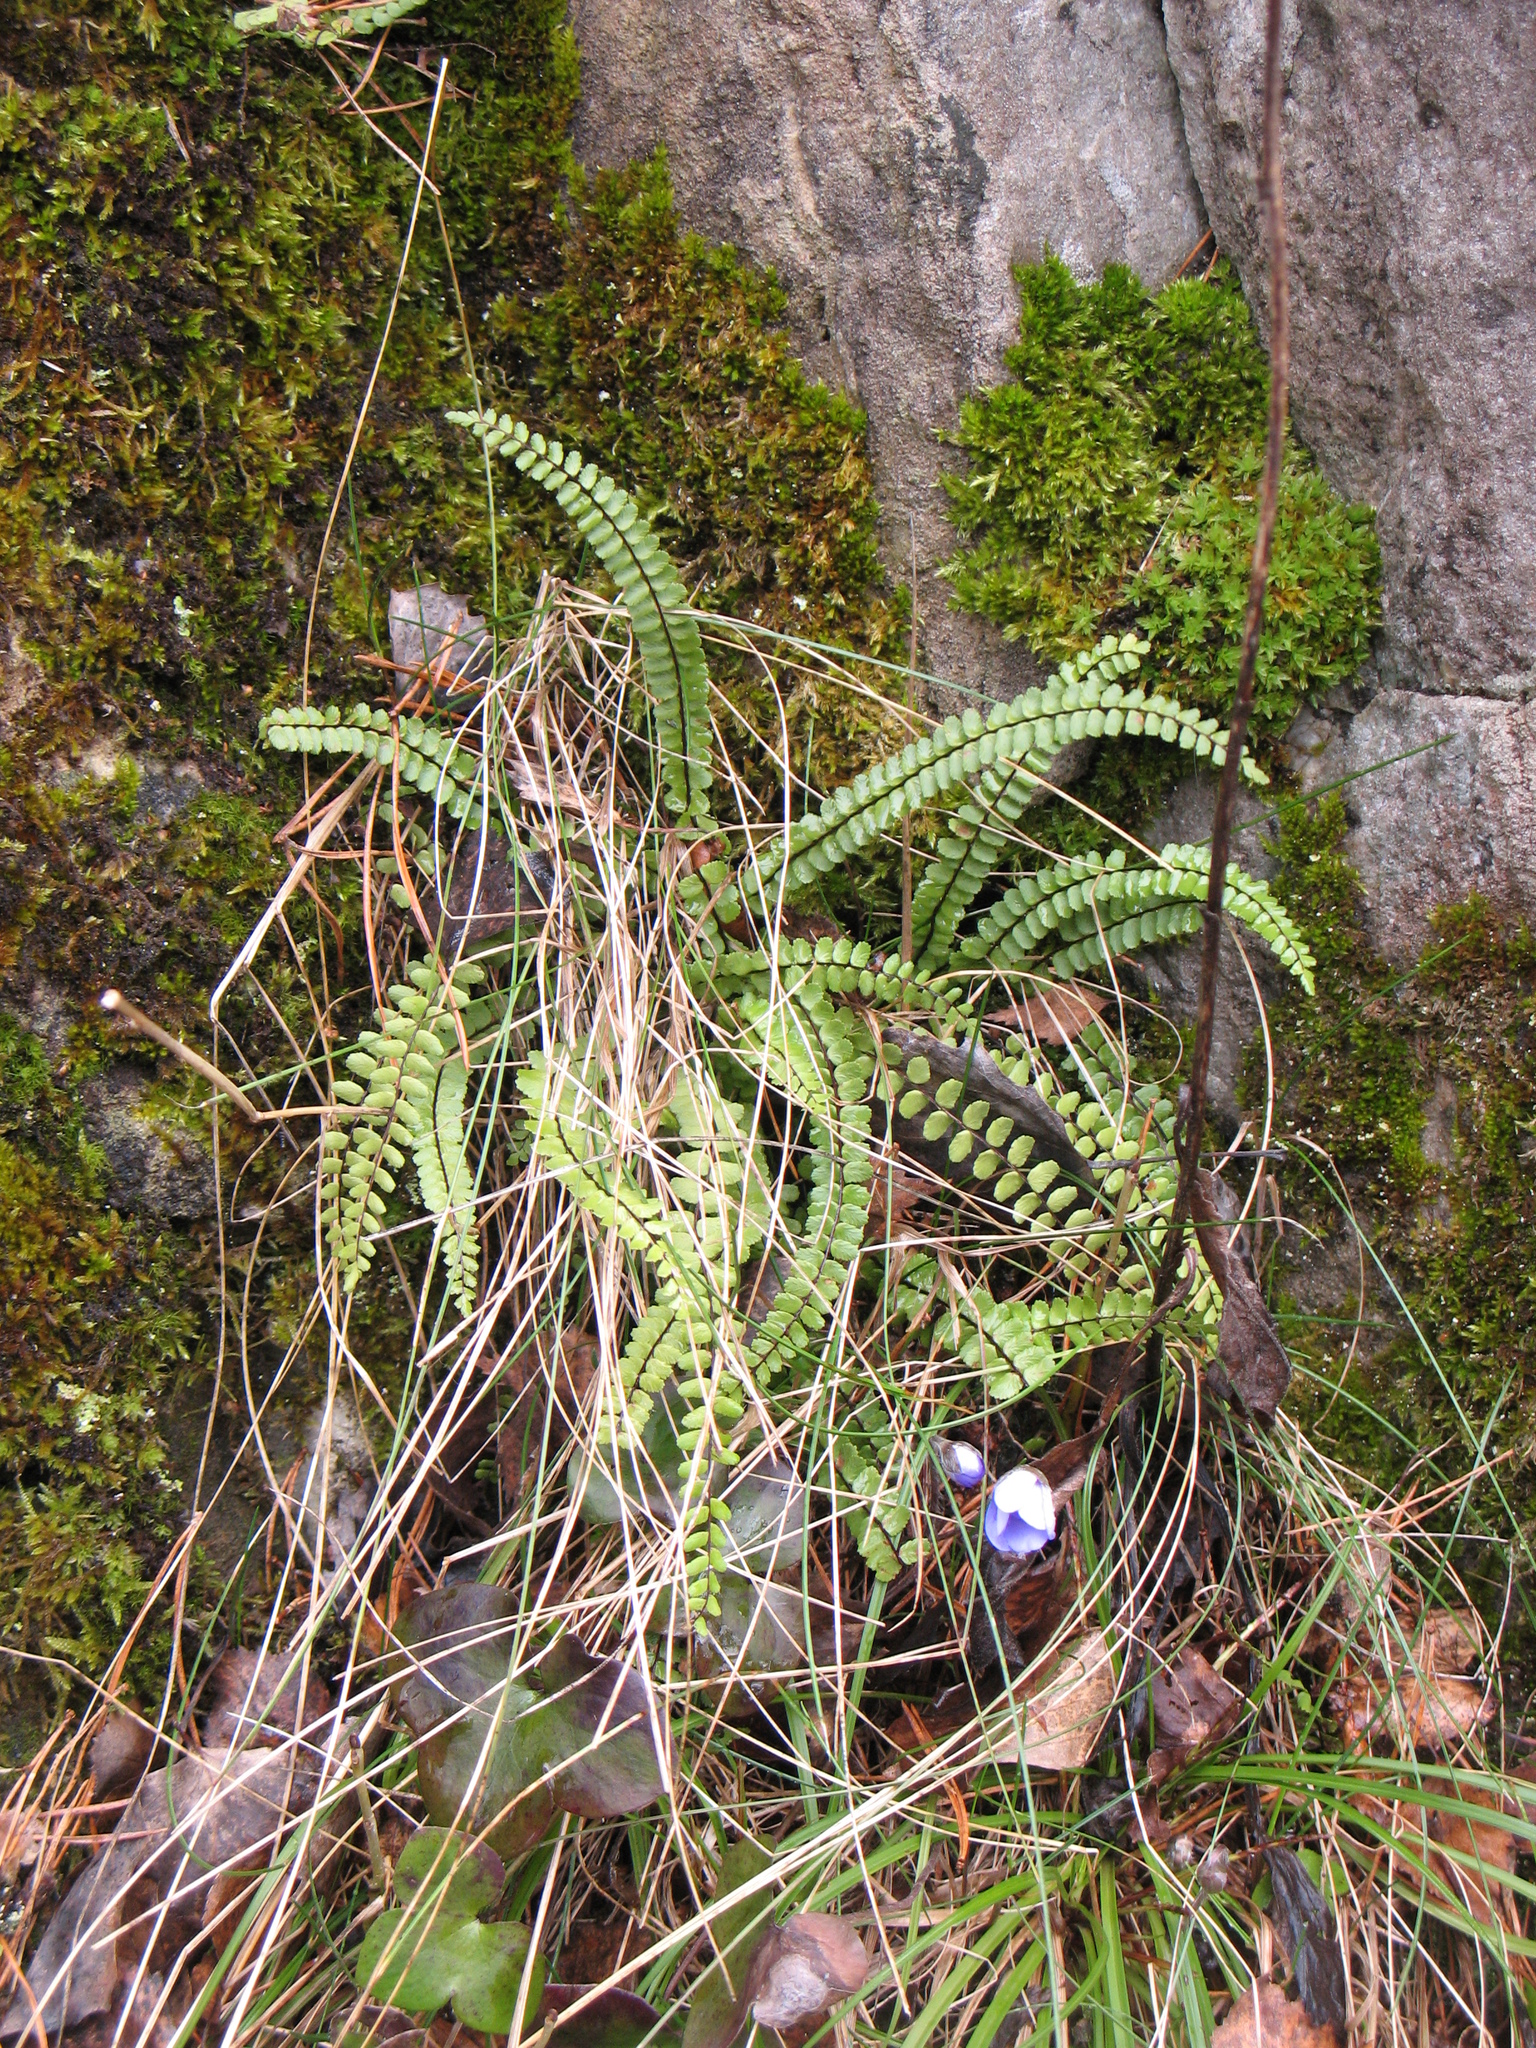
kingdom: Plantae
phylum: Tracheophyta
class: Polypodiopsida
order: Polypodiales
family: Aspleniaceae
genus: Asplenium
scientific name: Asplenium trichomanes
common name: Maidenhair spleenwort
